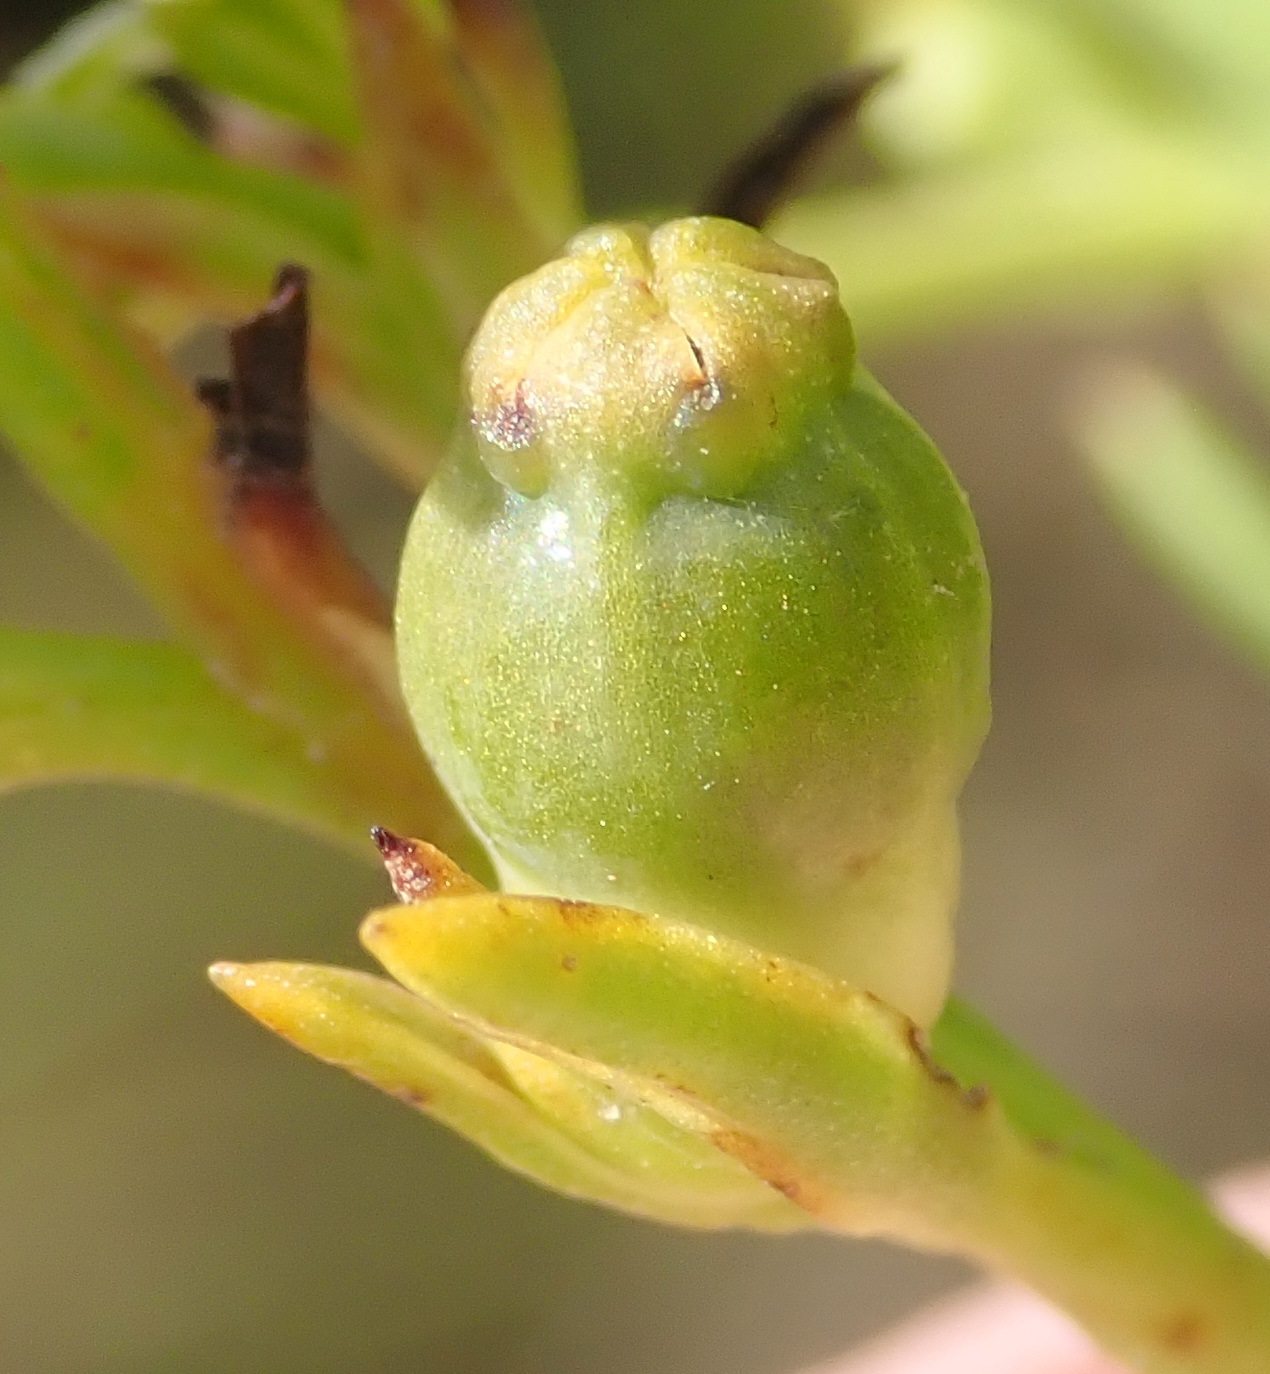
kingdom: Plantae
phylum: Tracheophyta
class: Magnoliopsida
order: Santalales
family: Thesiaceae
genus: Thesium
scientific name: Thesium fruticosum
